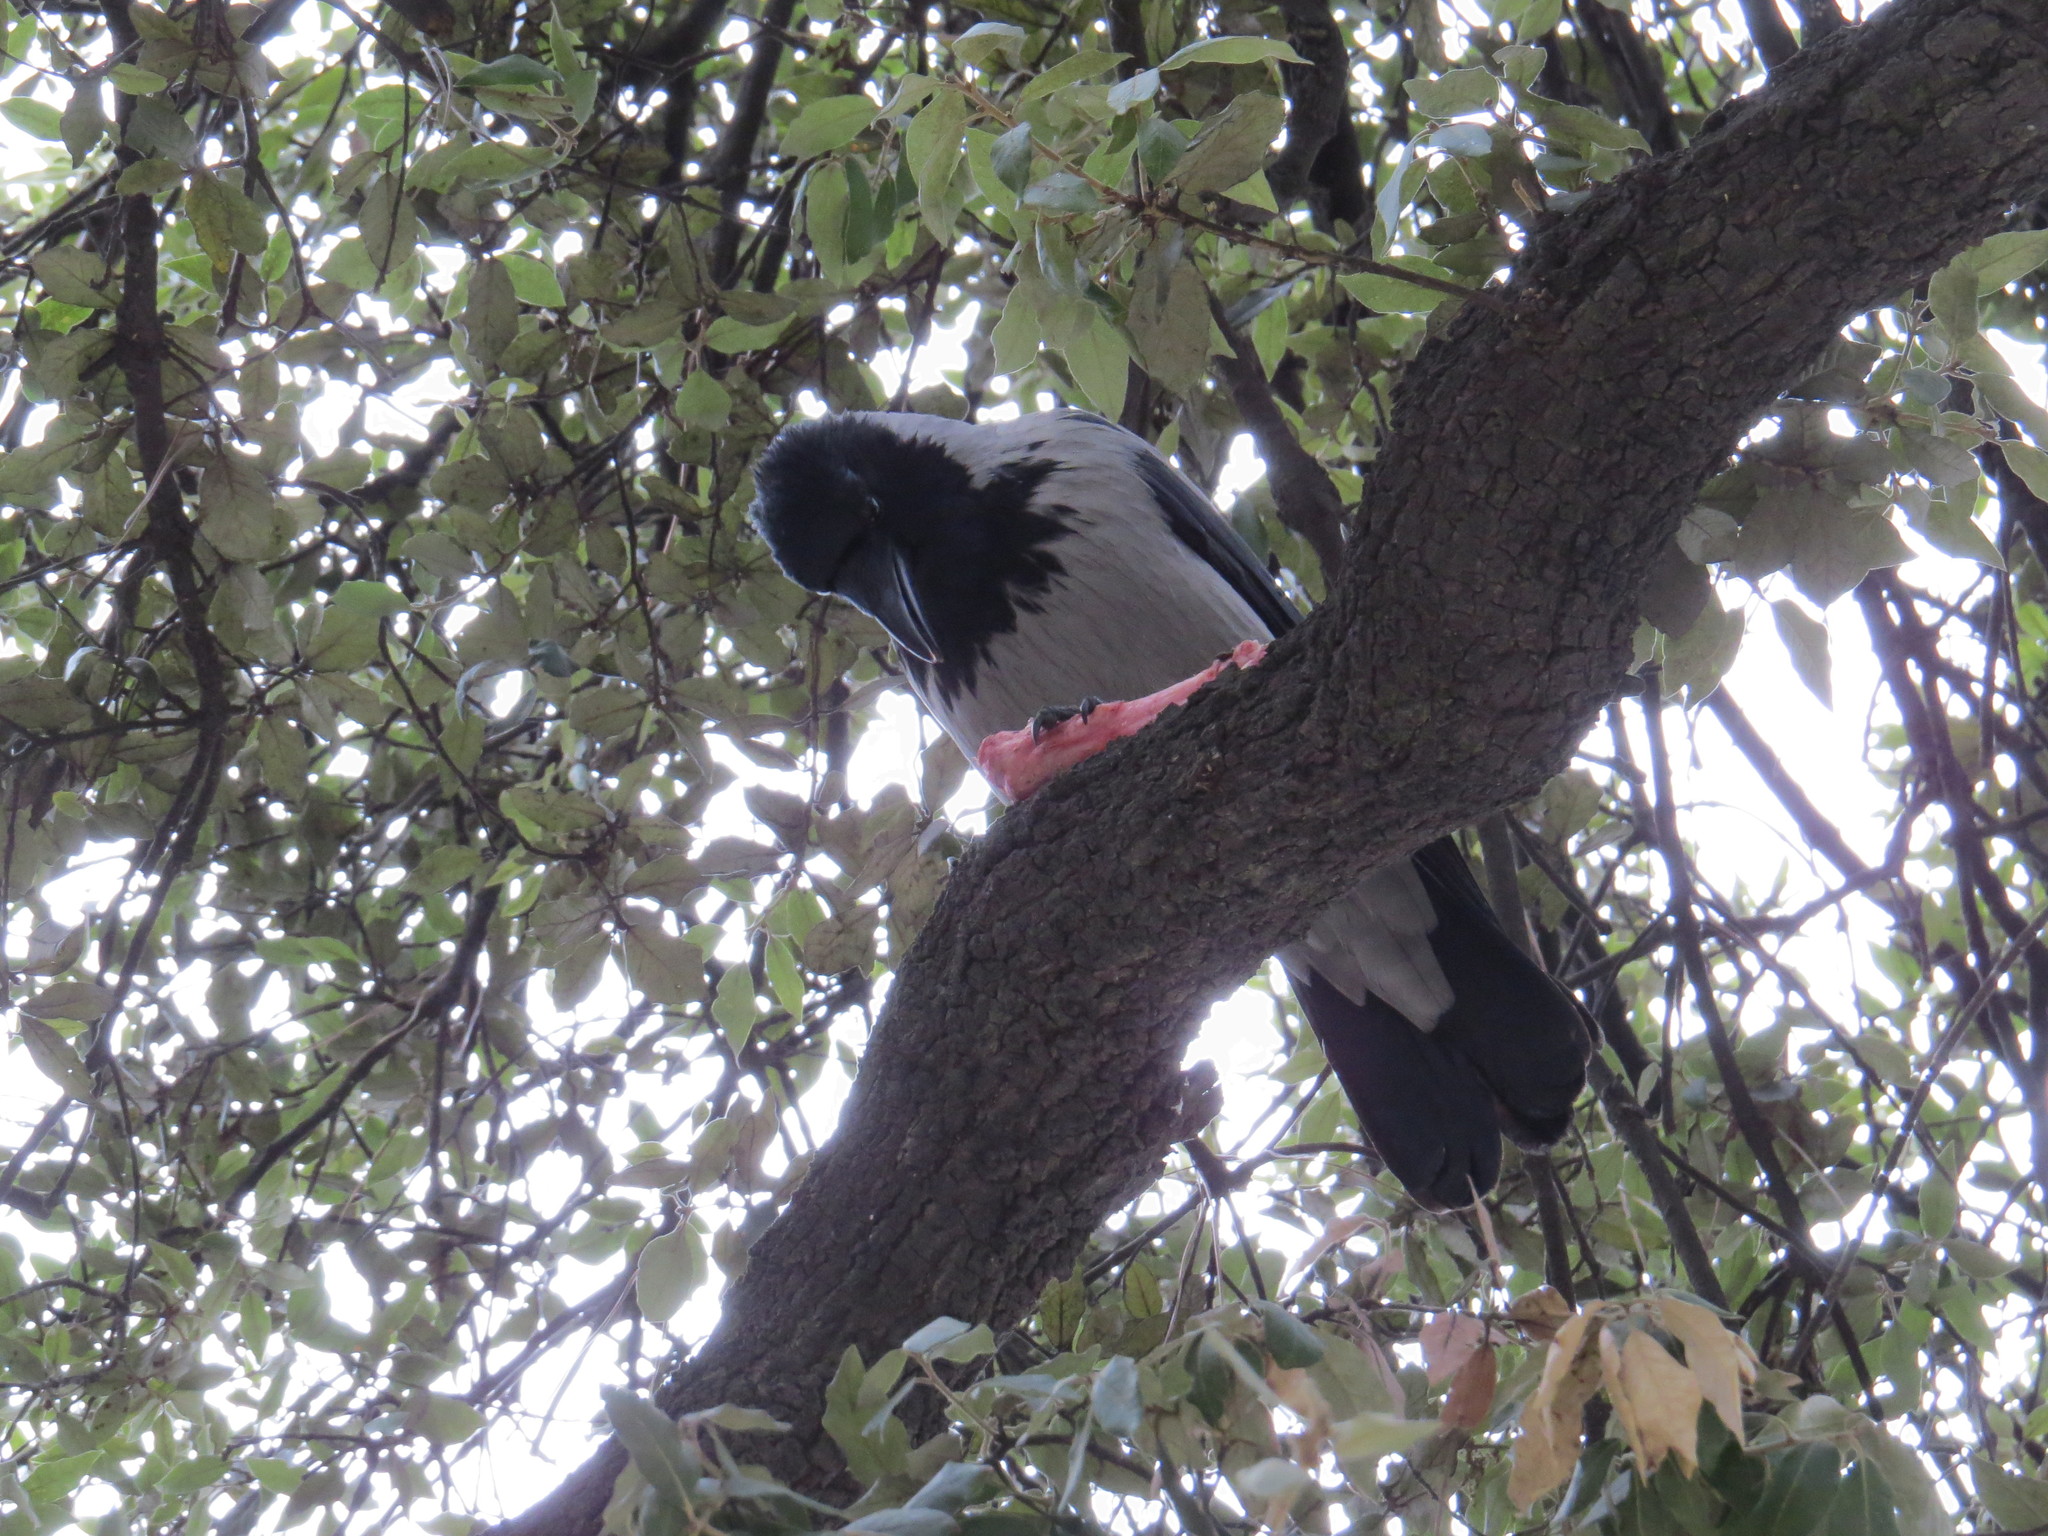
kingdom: Animalia
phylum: Chordata
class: Aves
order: Passeriformes
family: Corvidae
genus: Corvus
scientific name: Corvus cornix
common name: Hooded crow
